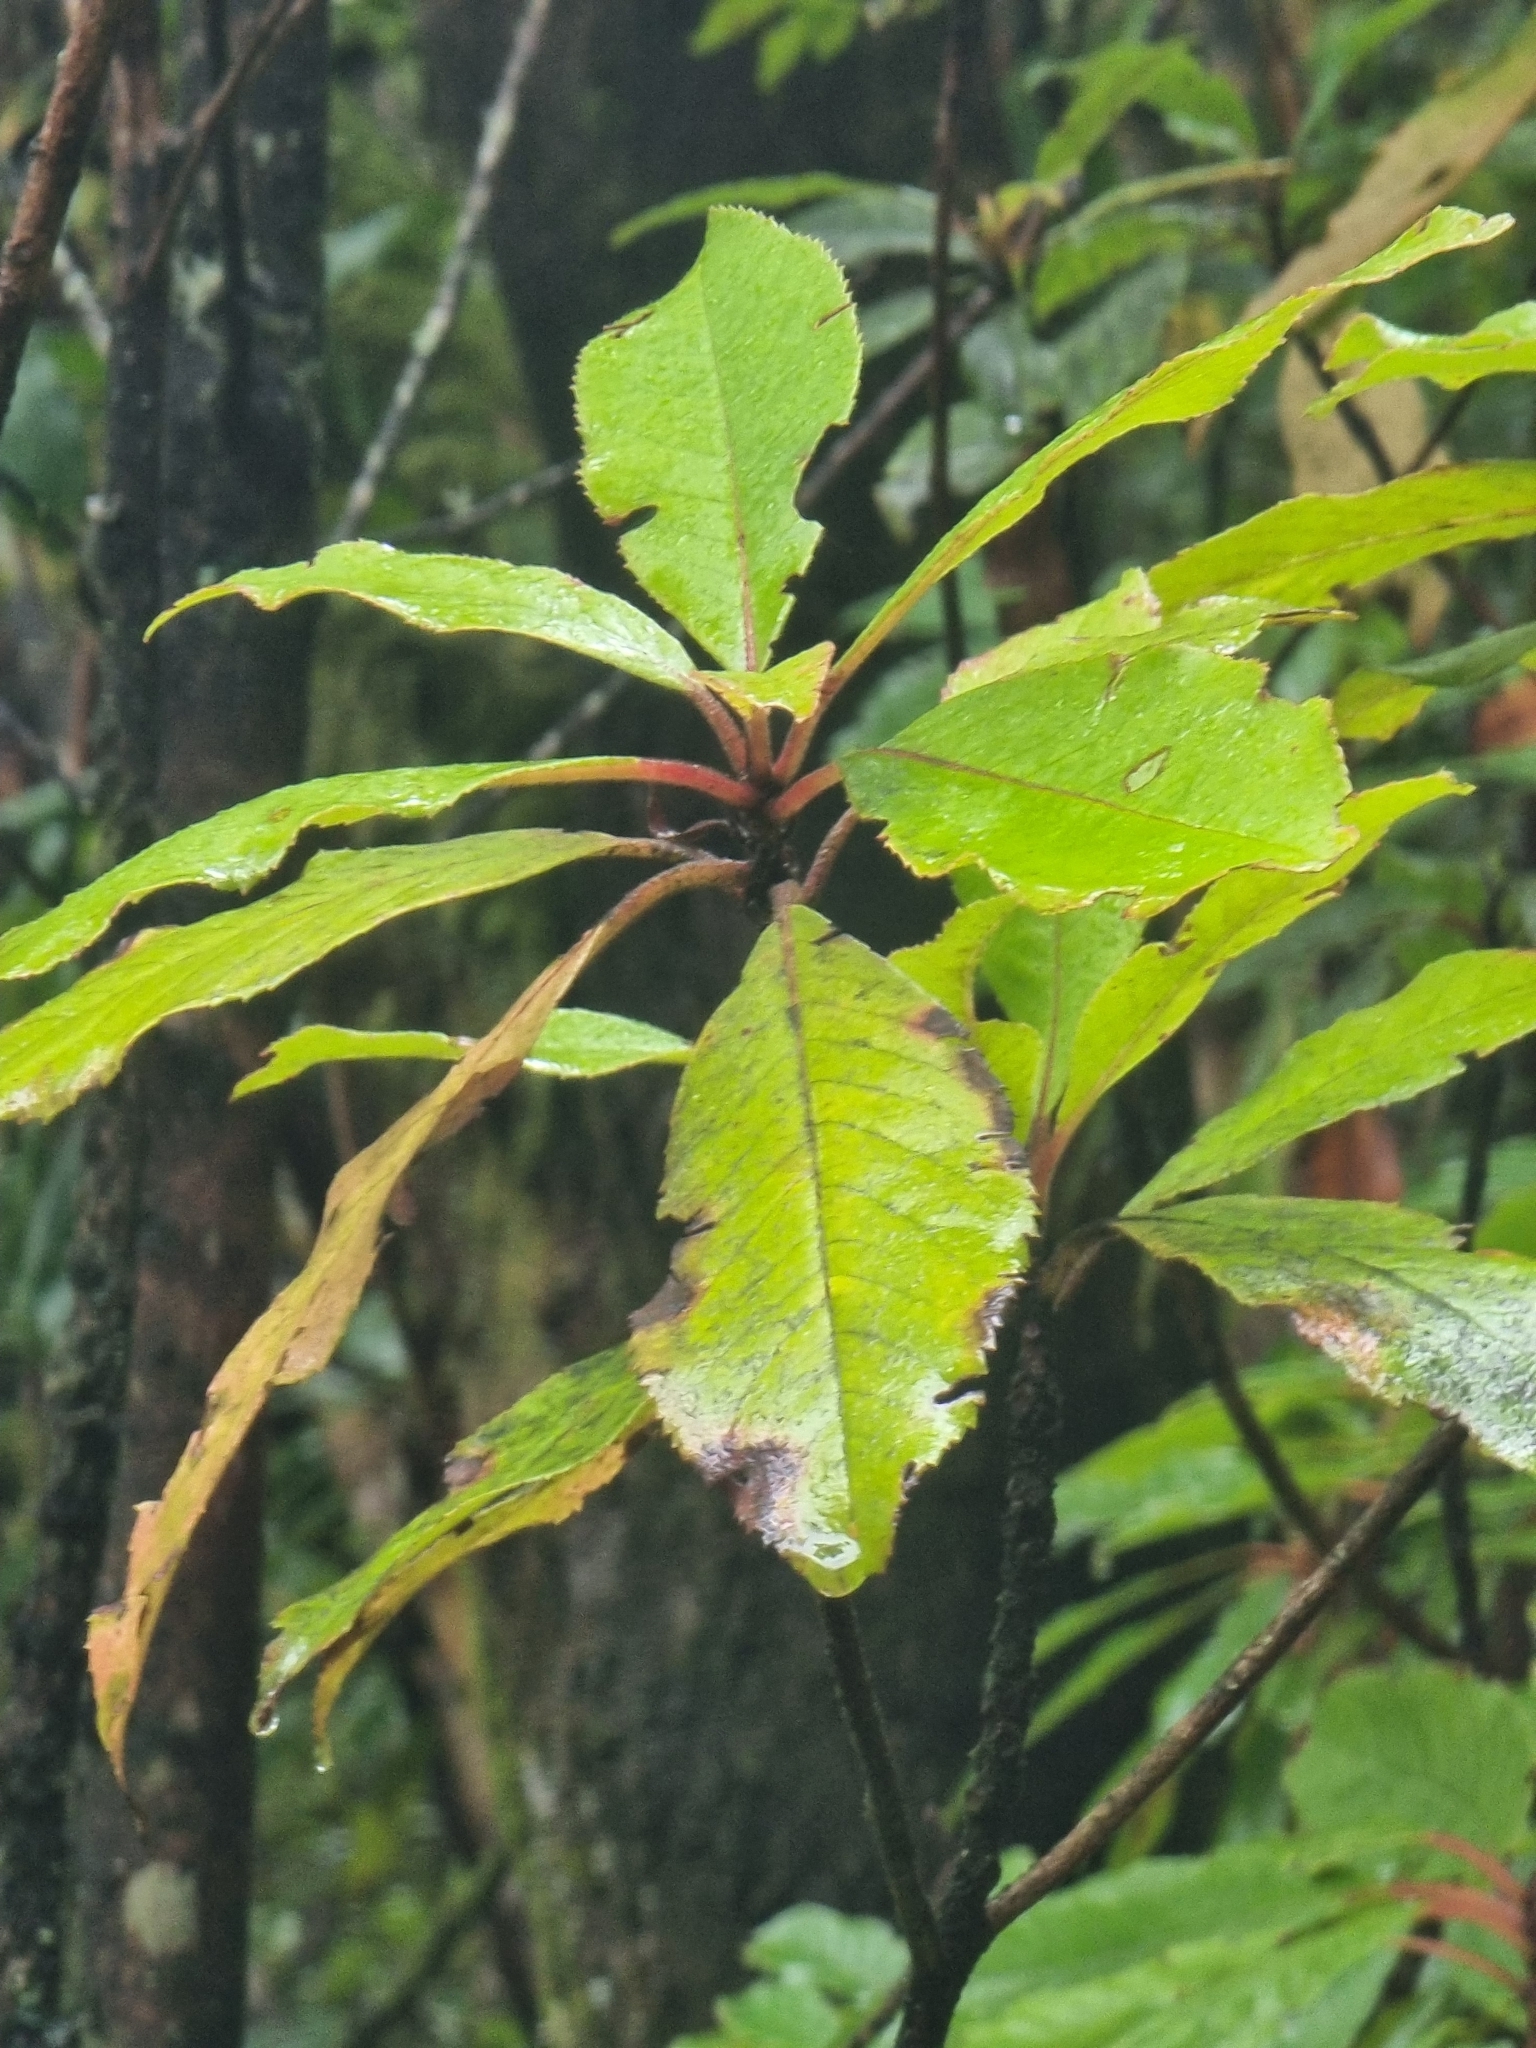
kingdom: Plantae
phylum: Tracheophyta
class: Magnoliopsida
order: Ericales
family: Clethraceae
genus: Clethra
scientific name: Clethra arborea
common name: Lily-of-the-valley-tree
